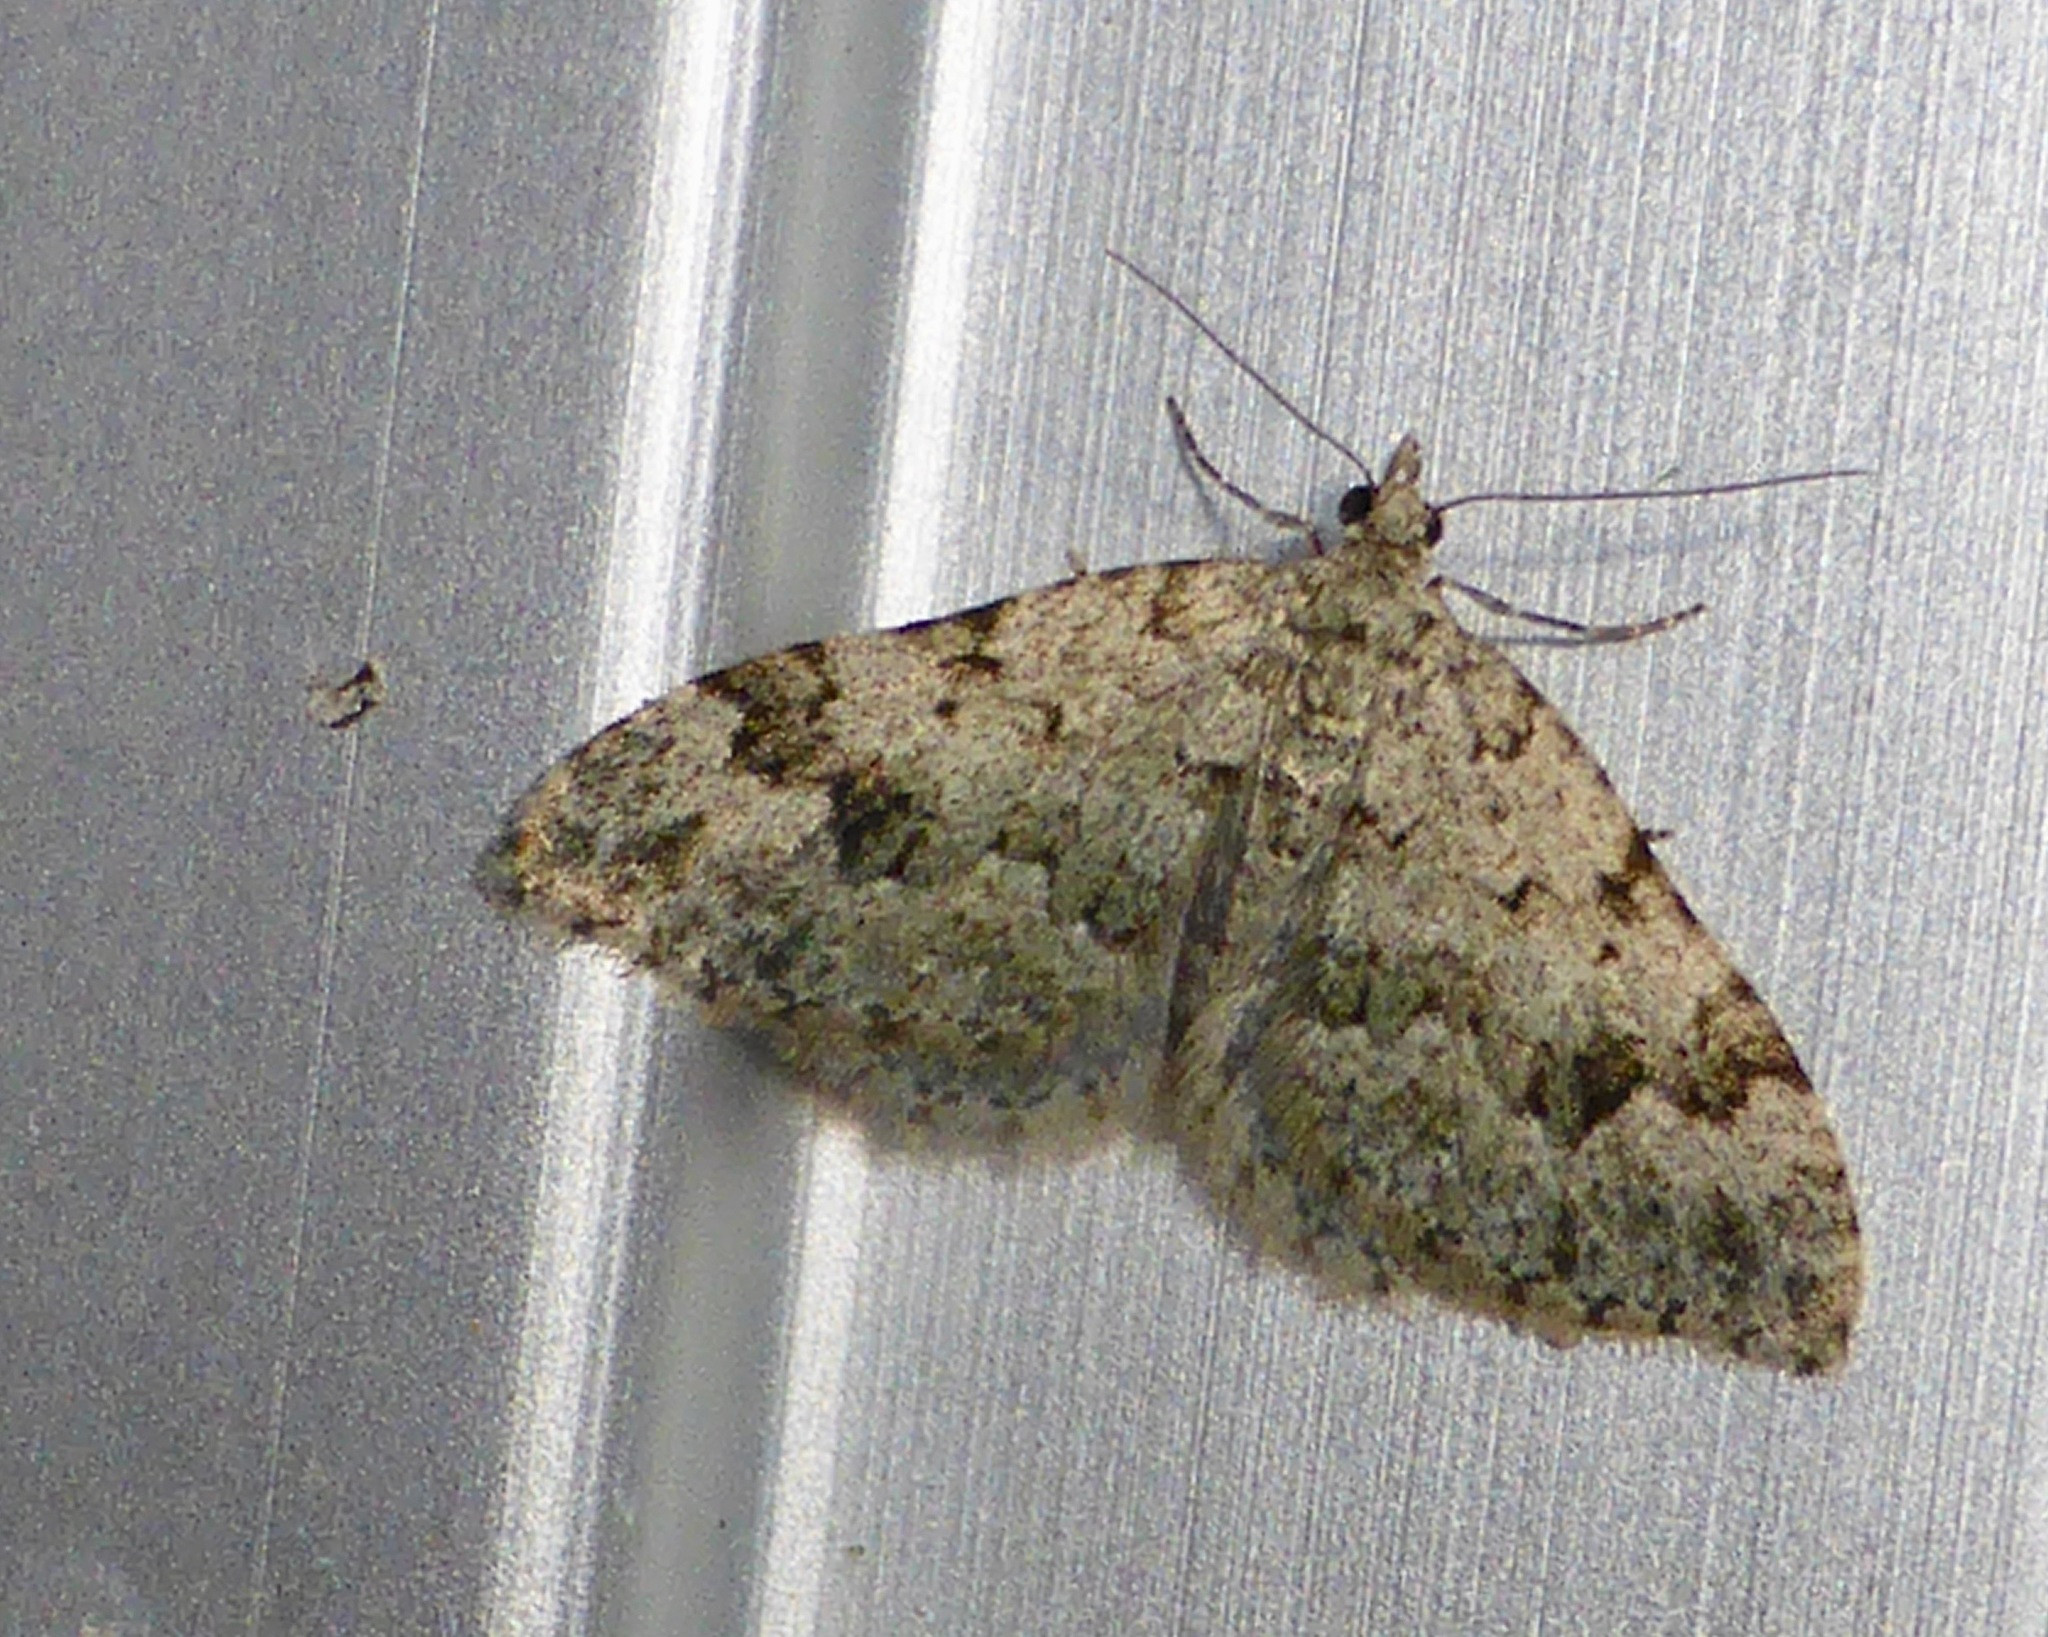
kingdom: Animalia
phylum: Arthropoda
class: Insecta
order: Lepidoptera
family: Geometridae
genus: Helastia
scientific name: Helastia cinerearia
